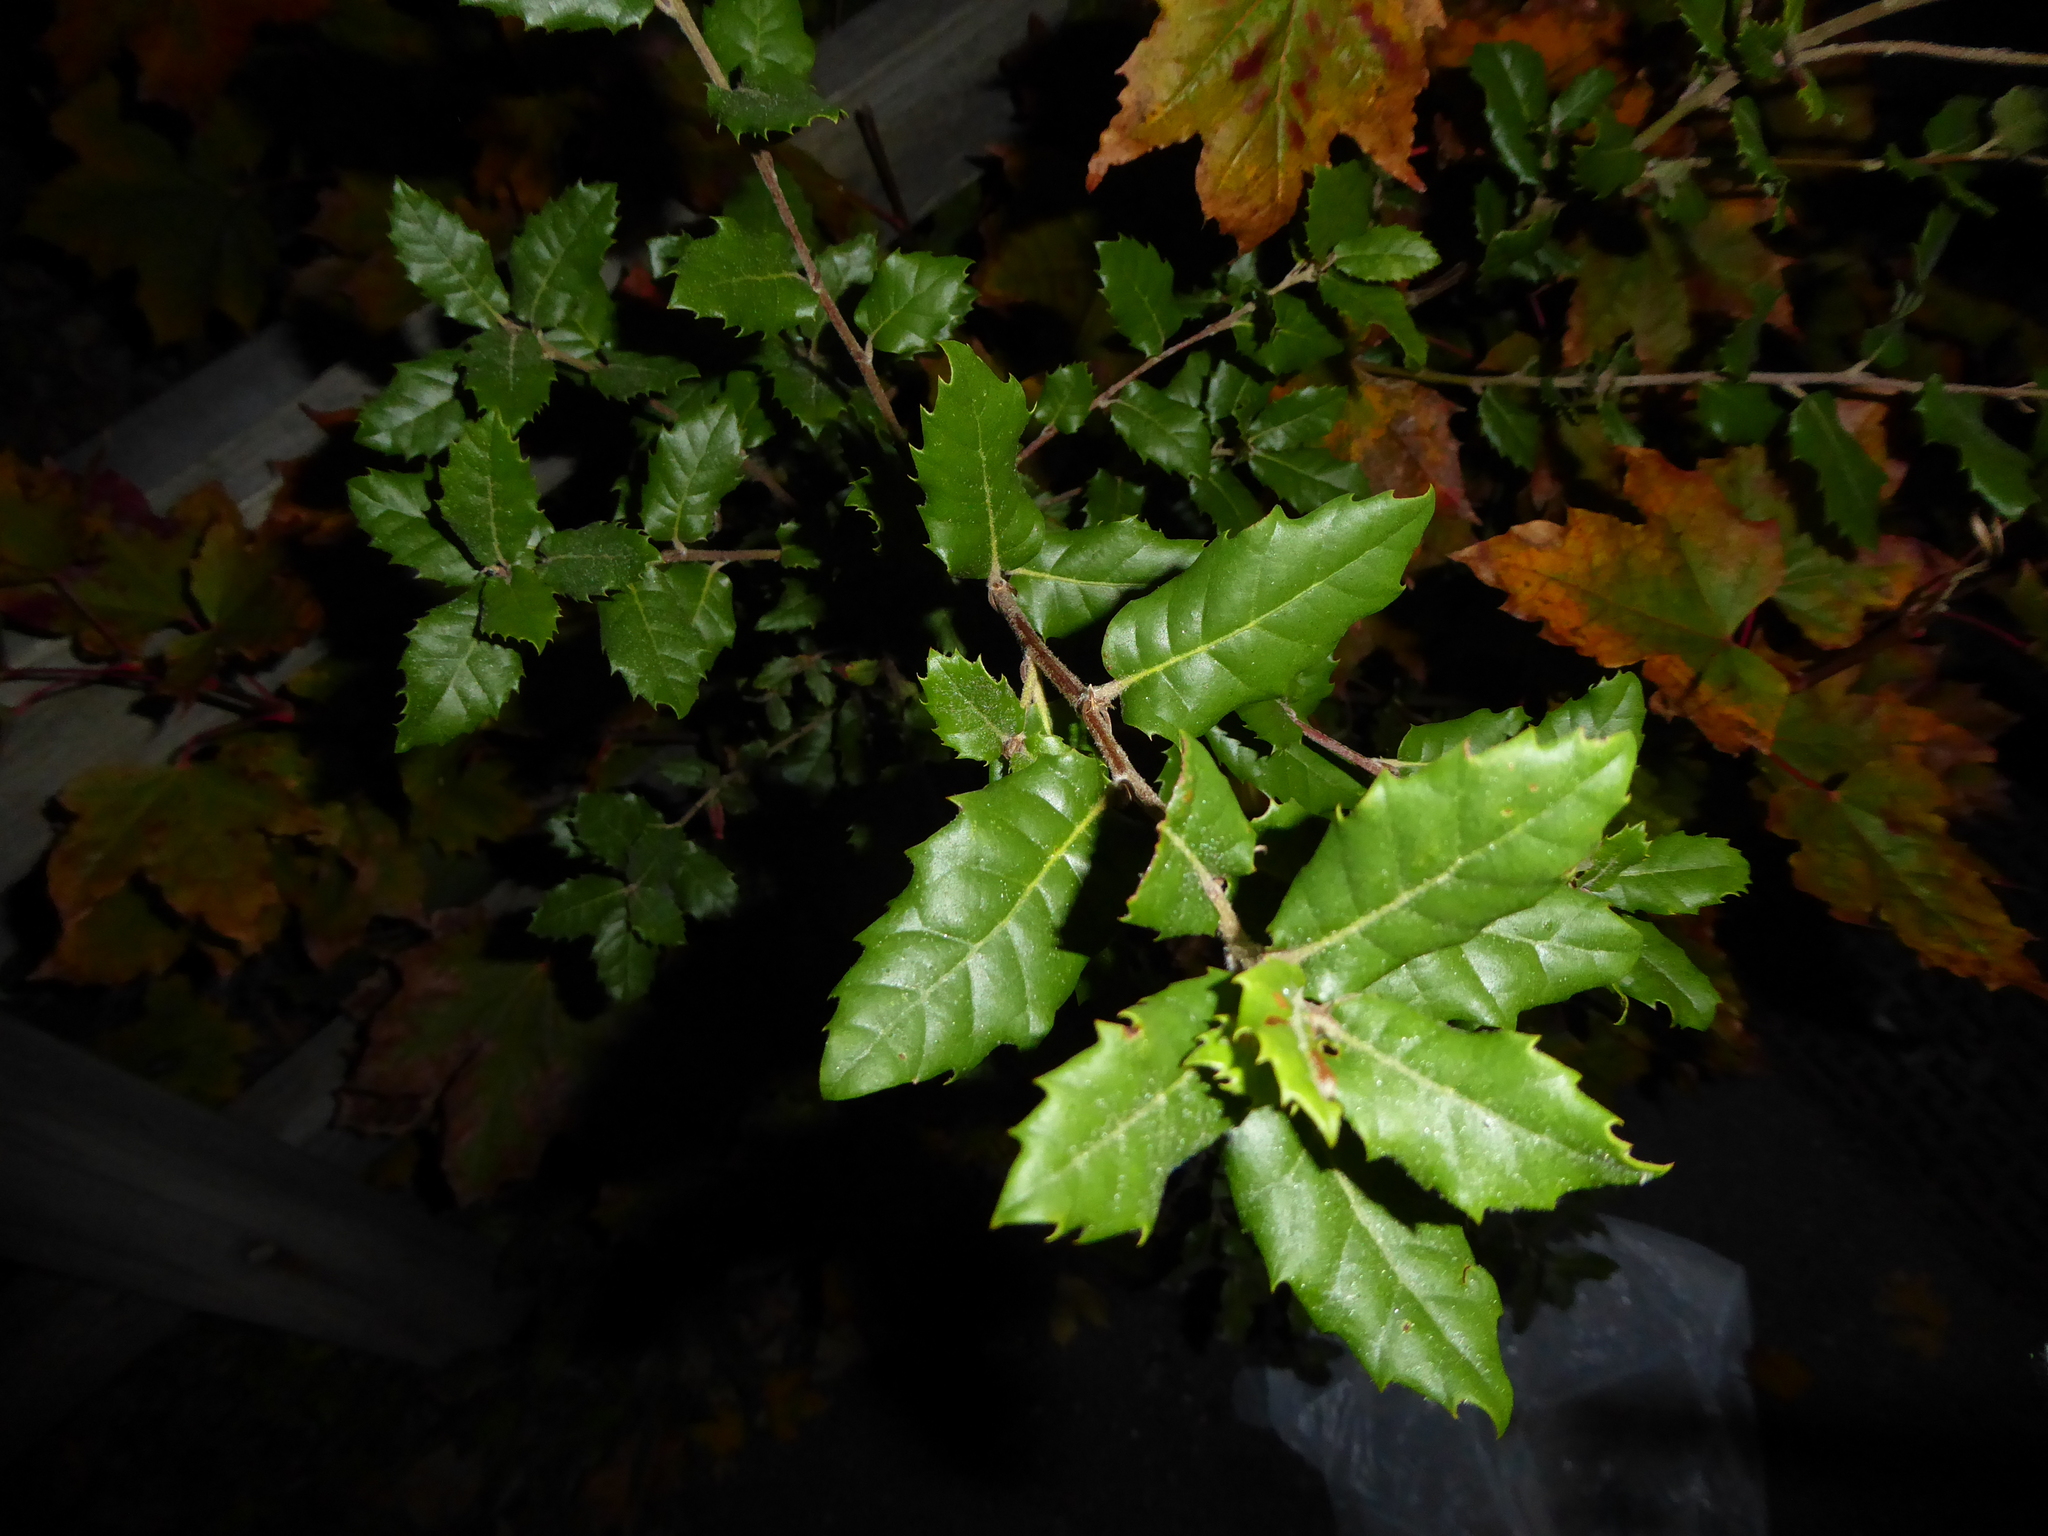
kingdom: Plantae
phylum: Tracheophyta
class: Magnoliopsida
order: Fagales
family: Fagaceae
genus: Quercus
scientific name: Quercus ilex
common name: Evergreen oak
